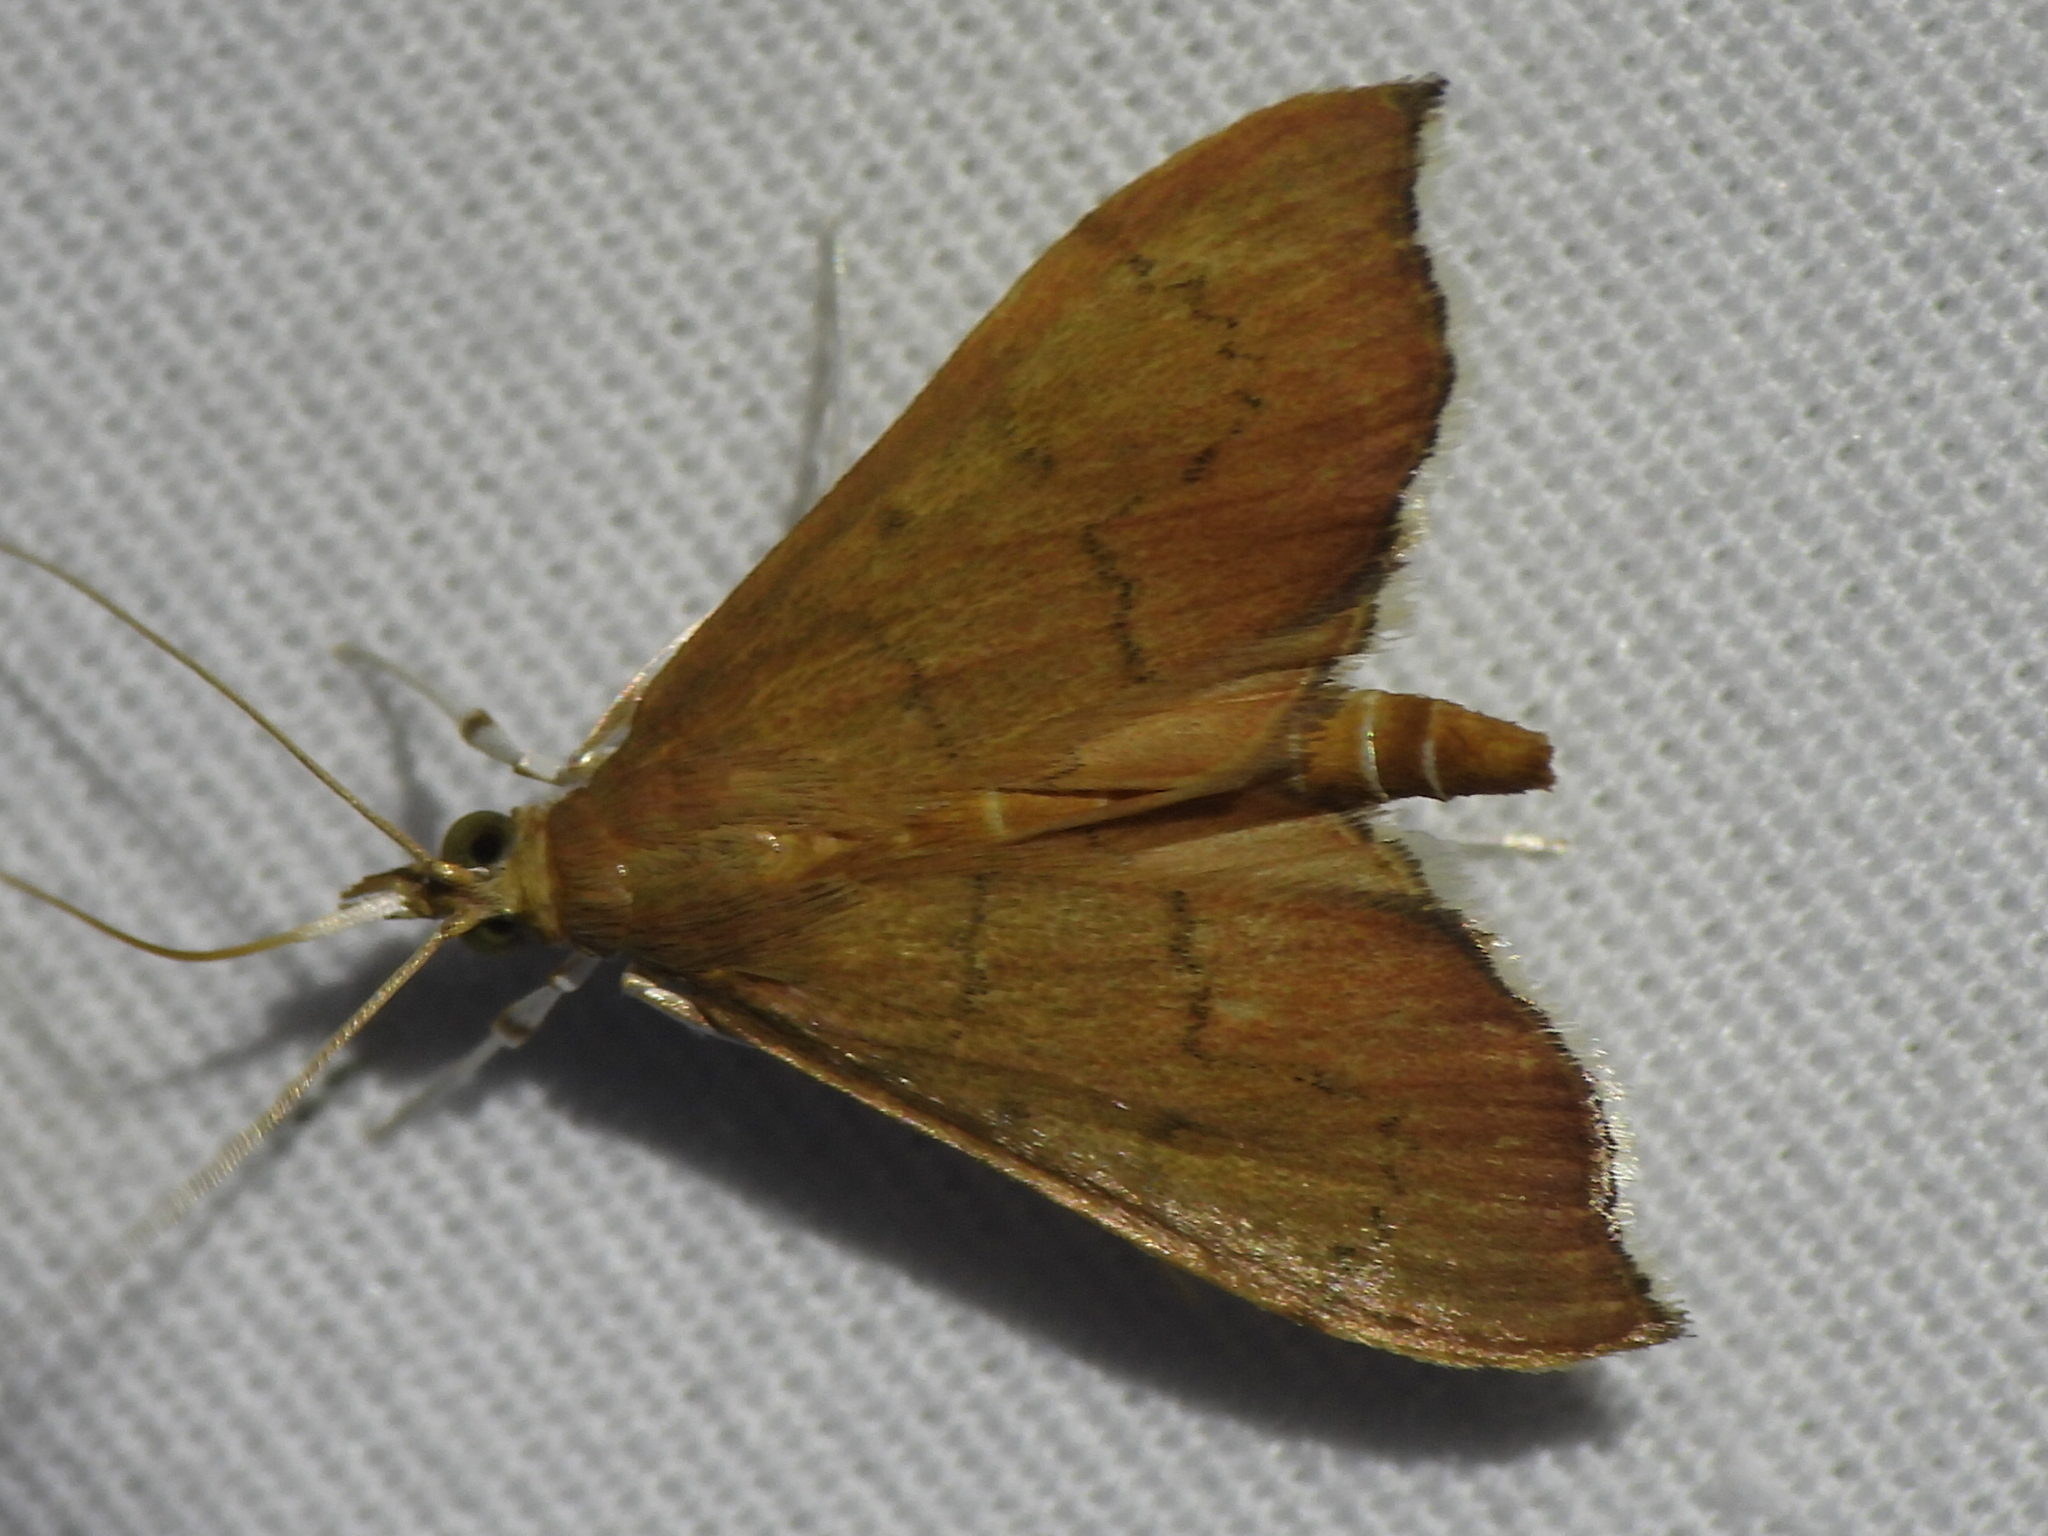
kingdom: Animalia
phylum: Arthropoda
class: Insecta
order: Lepidoptera
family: Crambidae
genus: Sericoplaga
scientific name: Sericoplaga externalis
